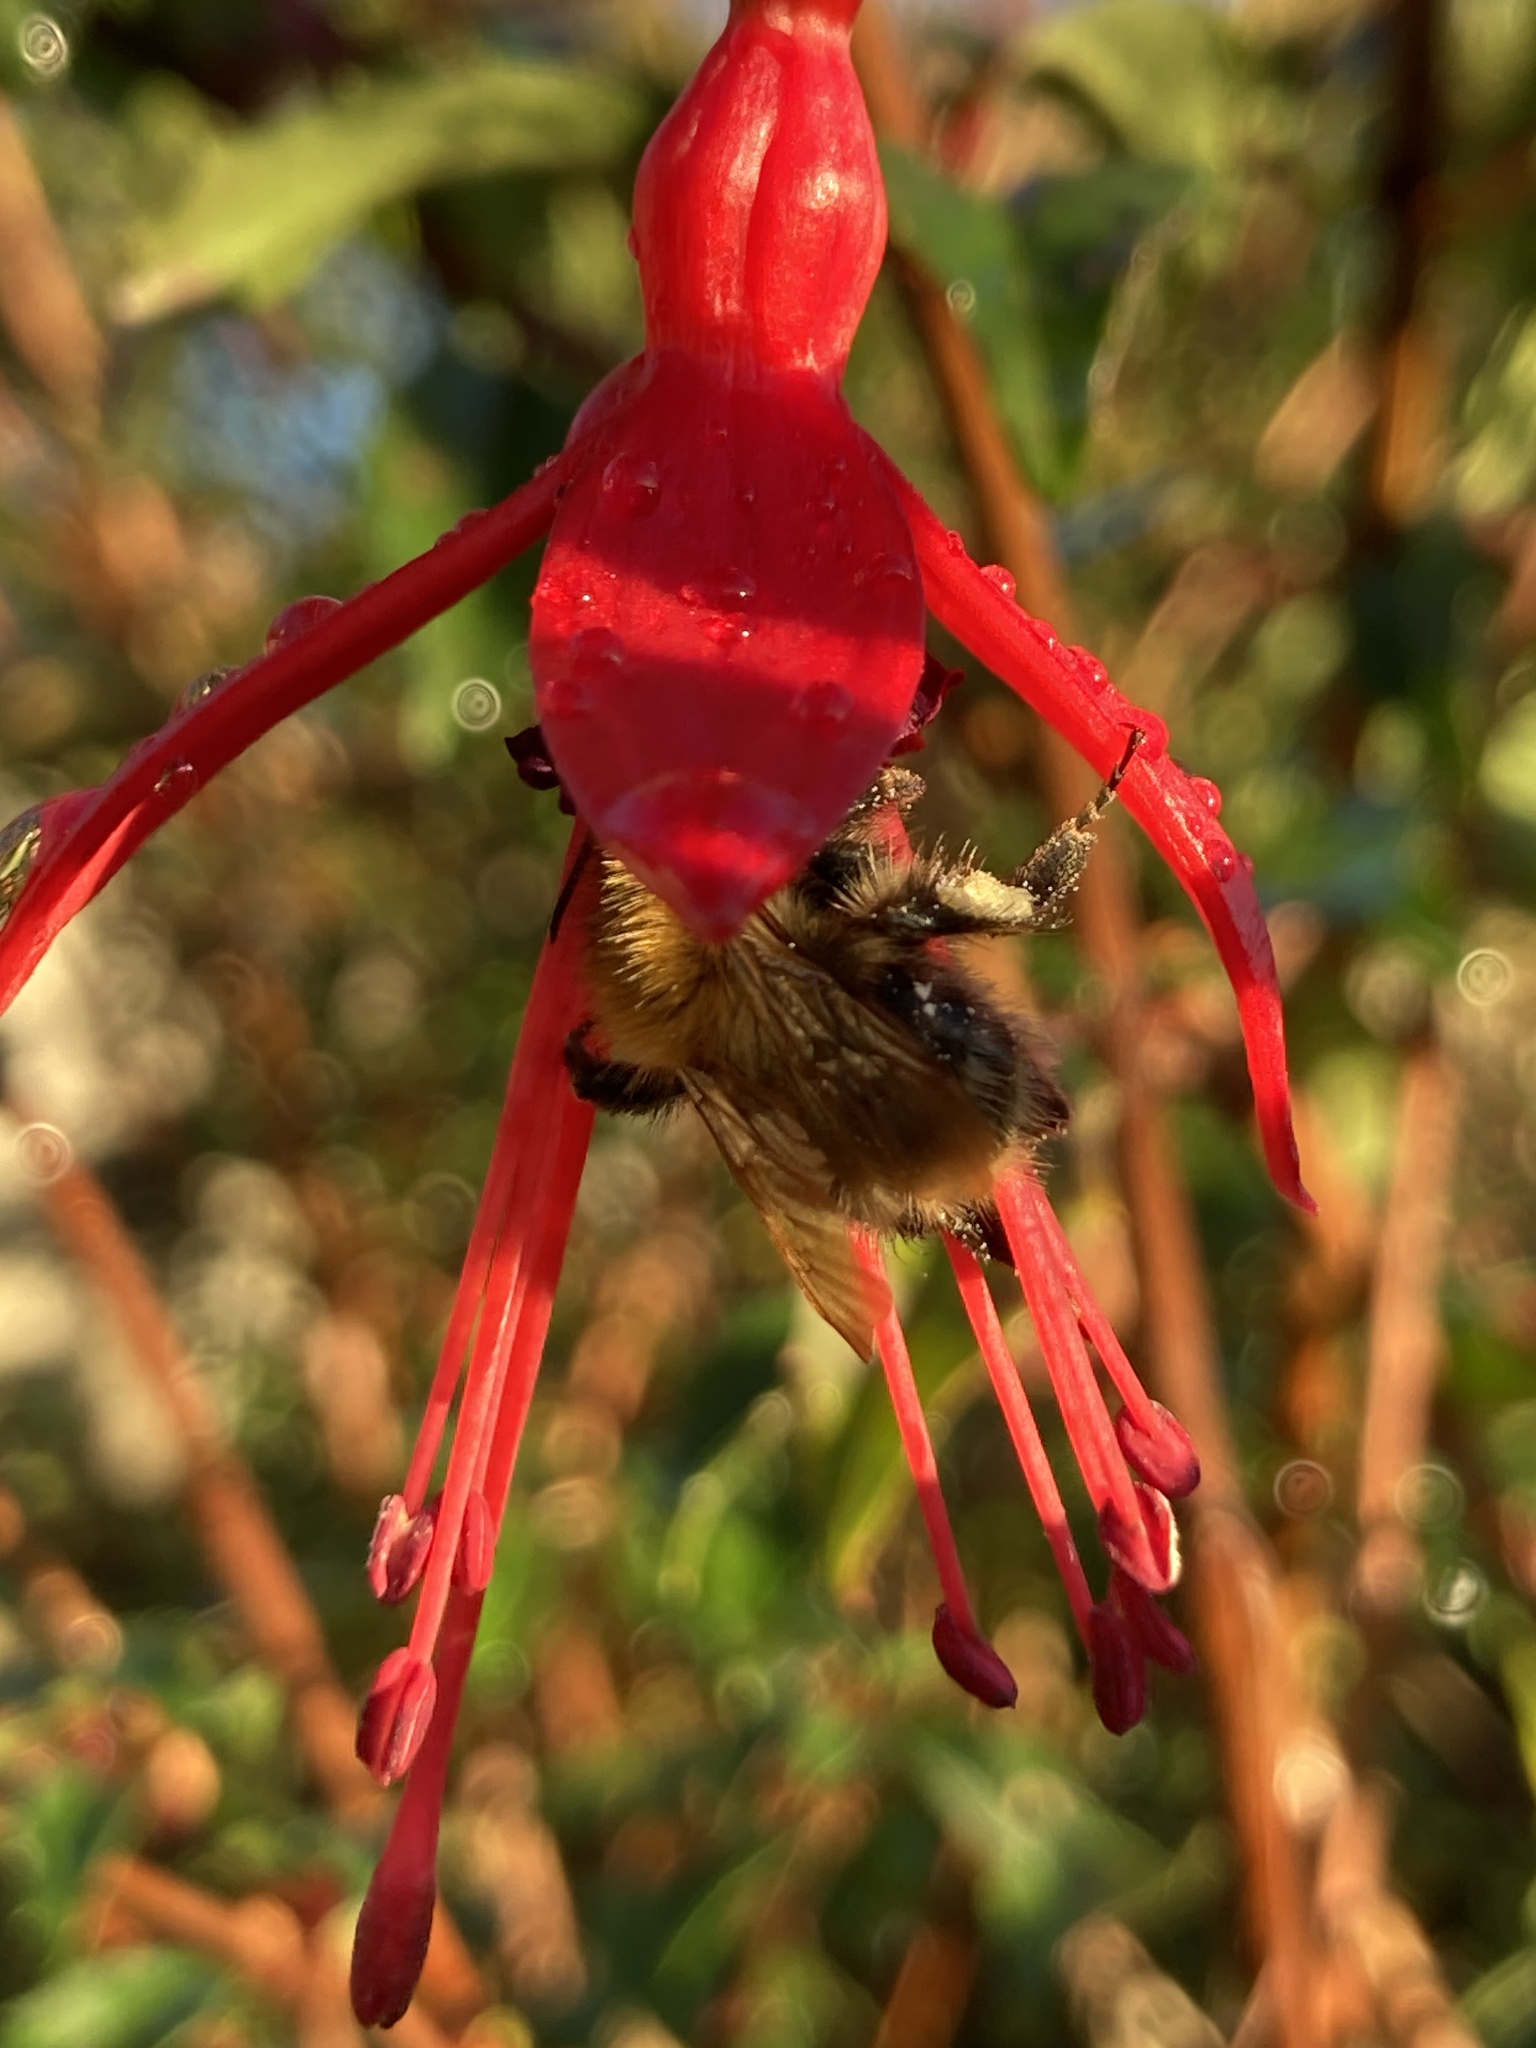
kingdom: Animalia
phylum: Arthropoda
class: Insecta
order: Hymenoptera
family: Apidae
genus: Bombus
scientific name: Bombus pascuorum
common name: Common carder bee
